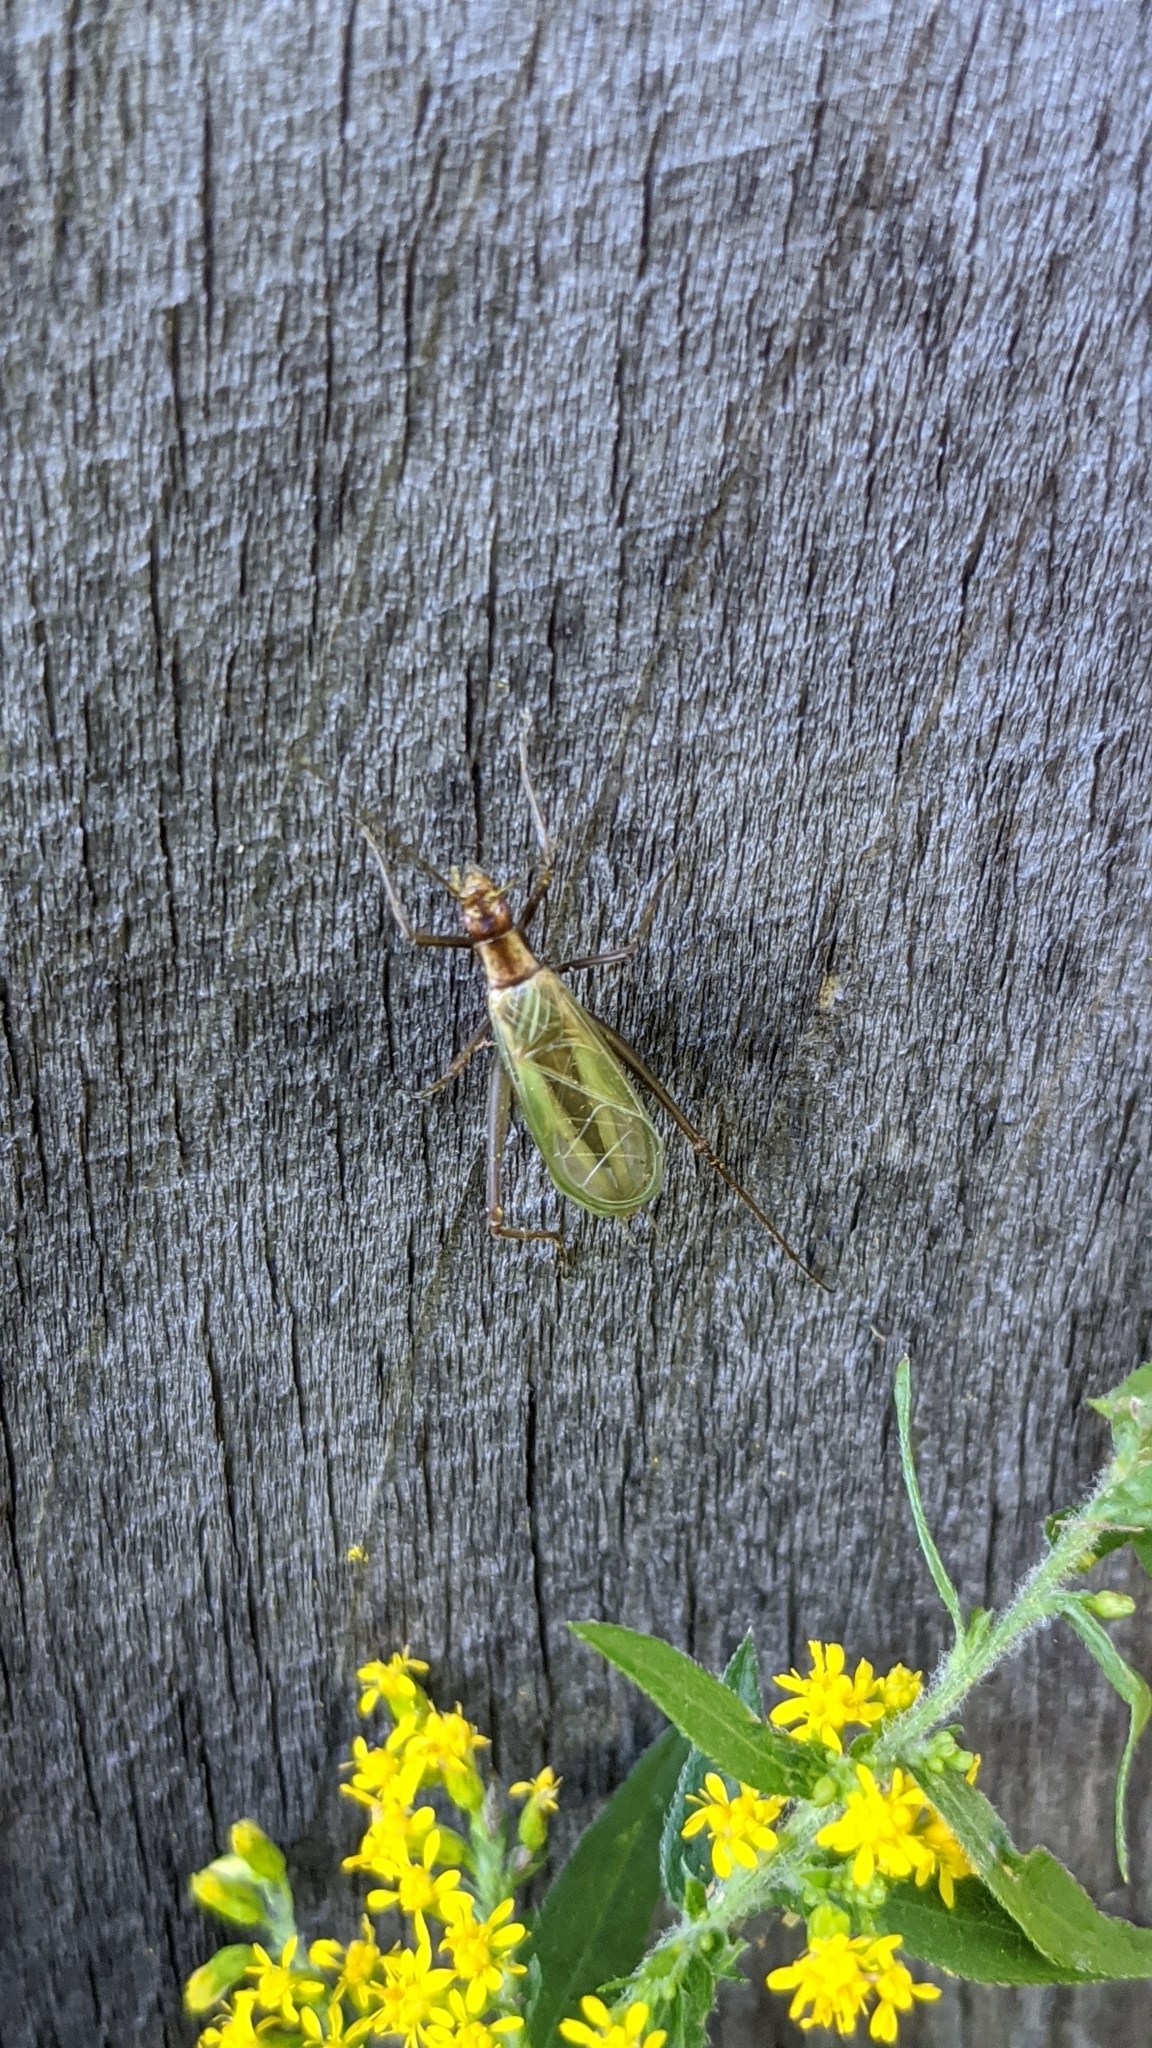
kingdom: Animalia
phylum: Arthropoda
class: Insecta
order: Orthoptera
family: Gryllidae
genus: Oecanthus
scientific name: Oecanthus pini
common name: Pine tree cricket
